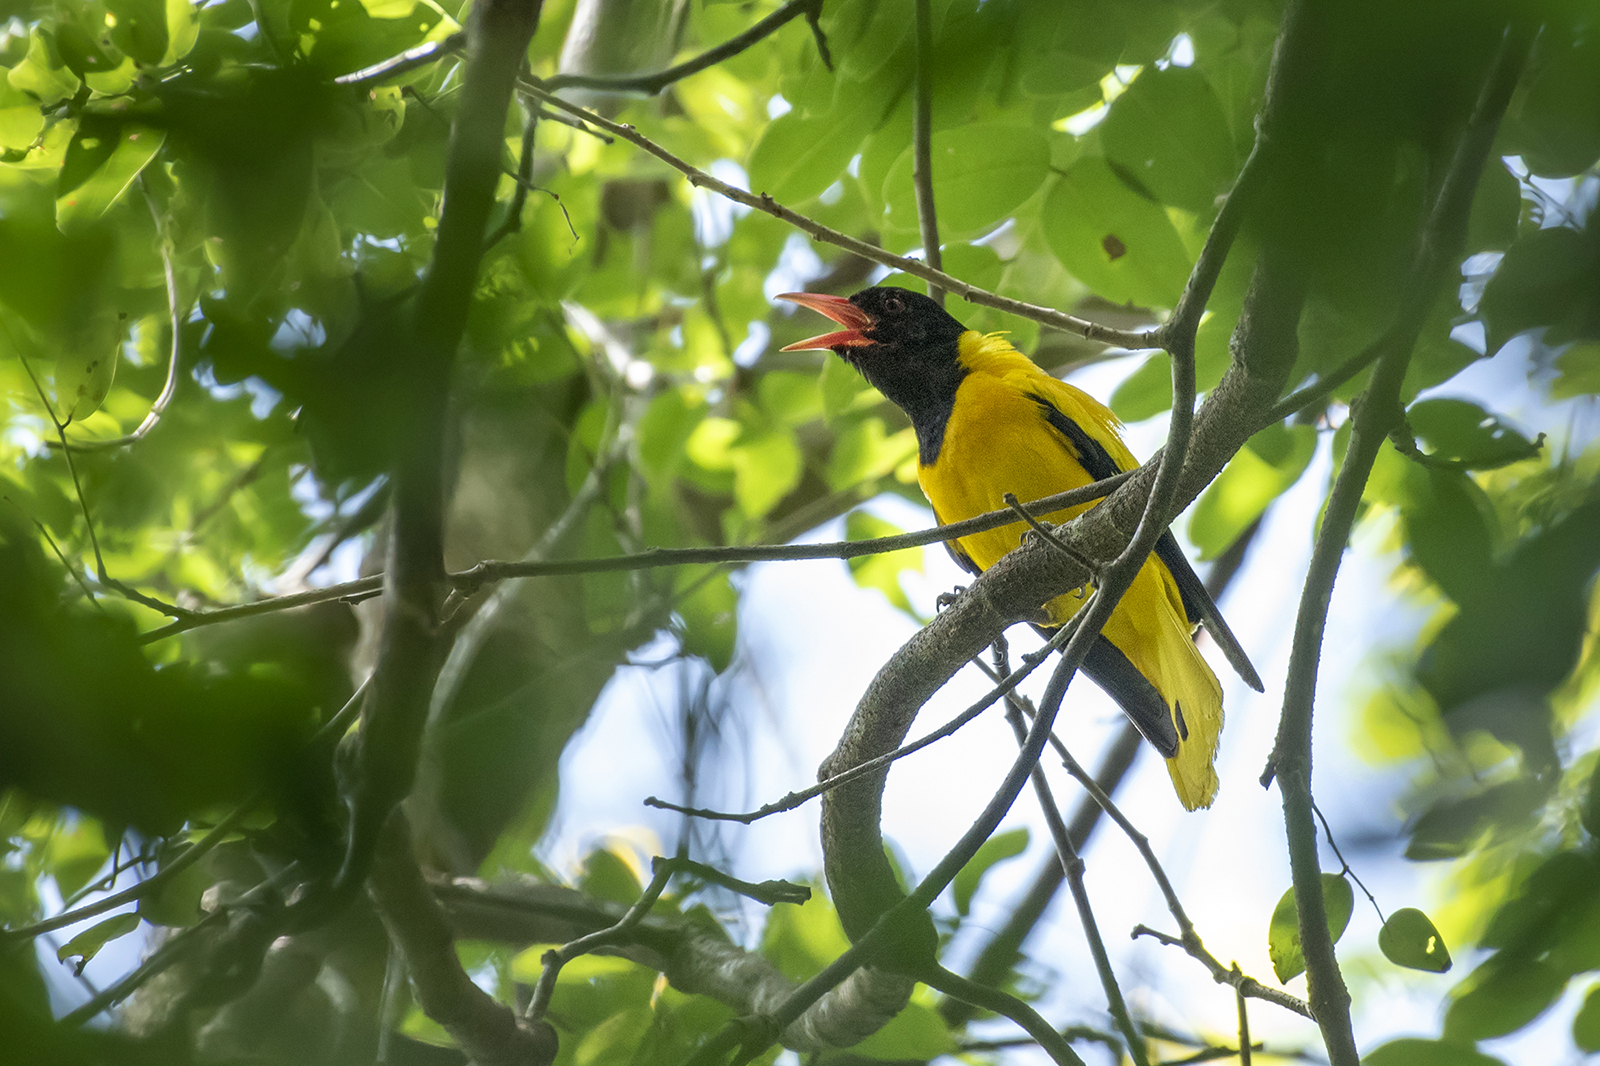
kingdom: Animalia
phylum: Chordata
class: Aves
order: Passeriformes
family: Oriolidae
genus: Oriolus
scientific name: Oriolus xanthornus
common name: Black-hooded oriole
